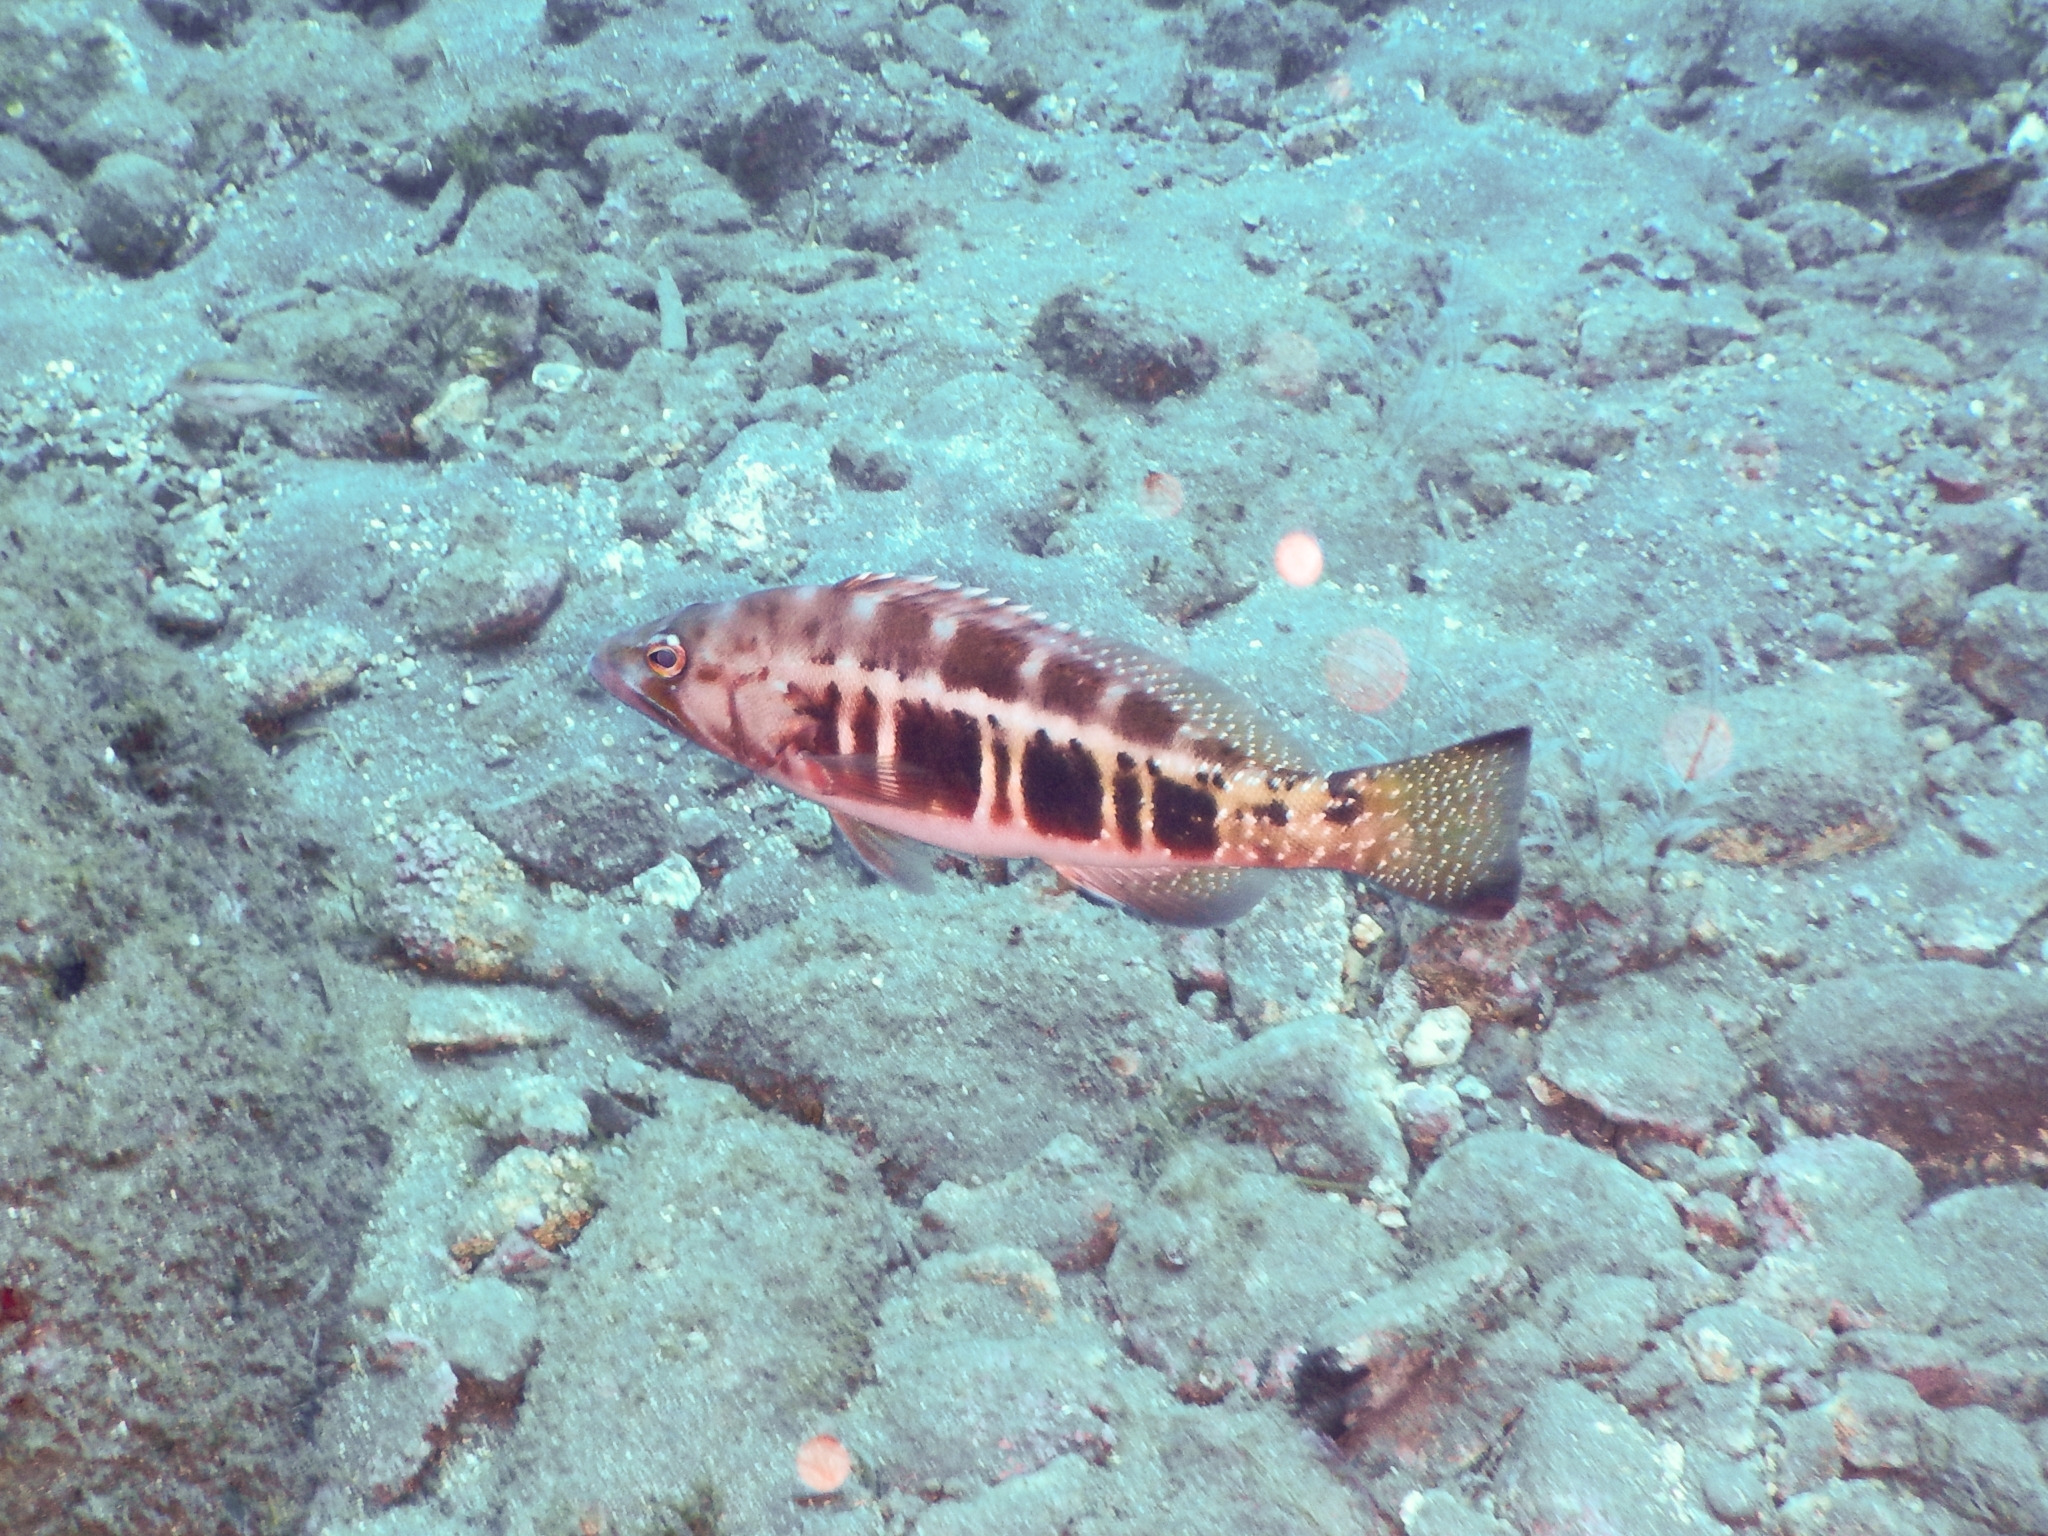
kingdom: Animalia
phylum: Chordata
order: Perciformes
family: Serranidae
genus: Serranus
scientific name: Serranus atricauda
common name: Blacktail comber
